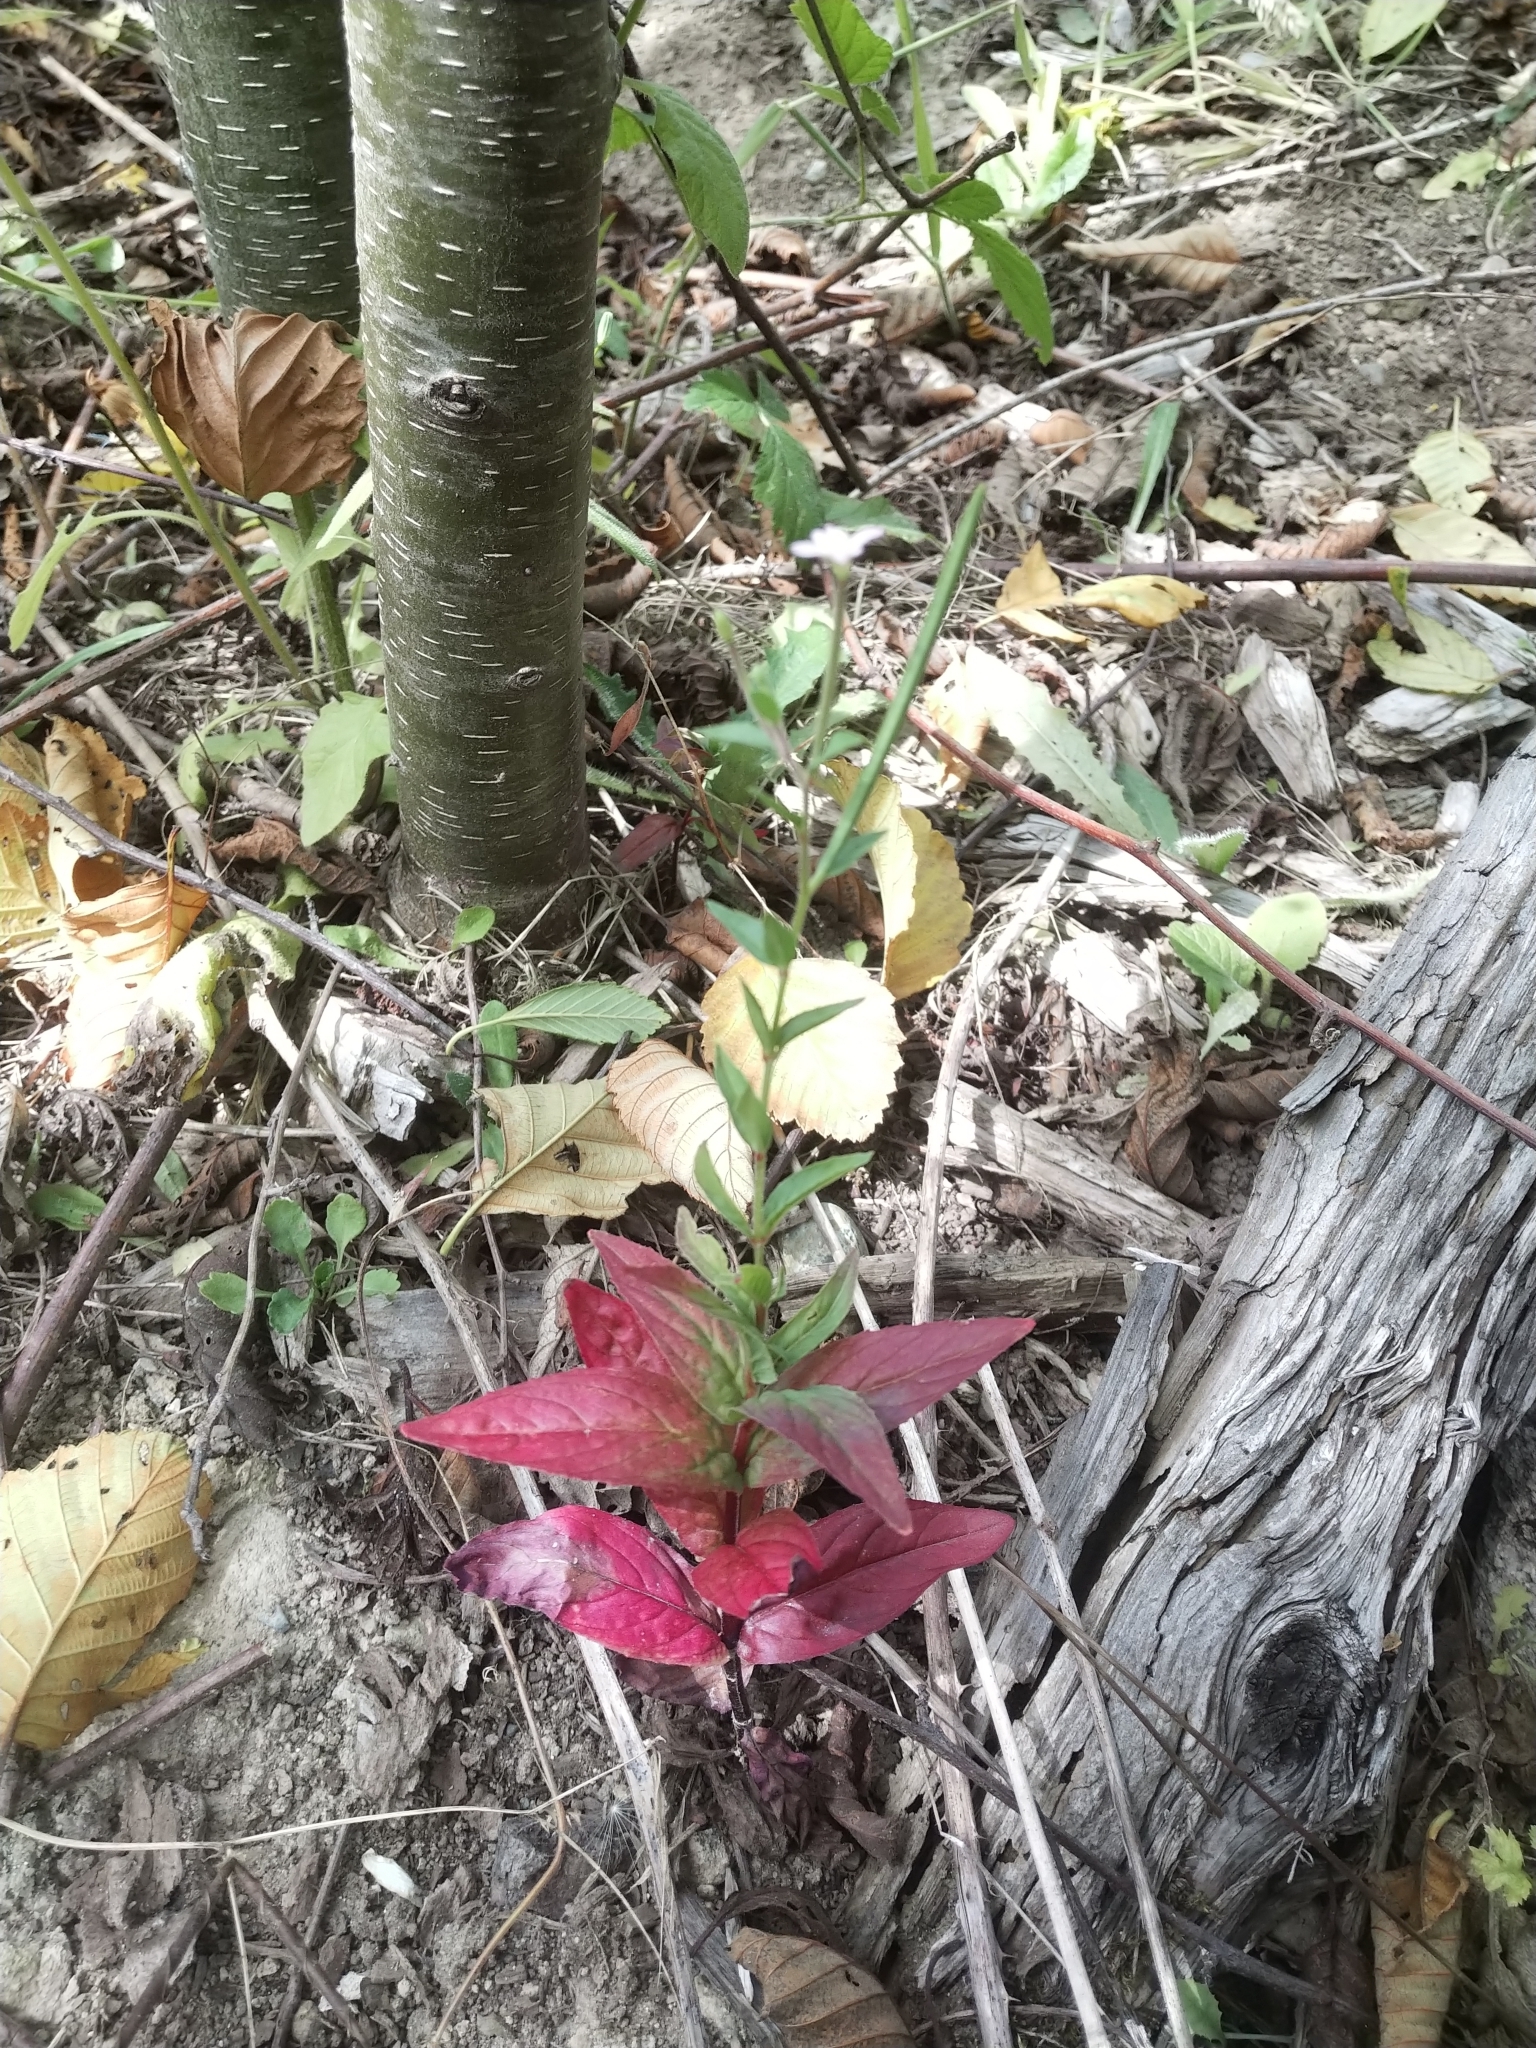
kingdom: Plantae
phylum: Tracheophyta
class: Magnoliopsida
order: Myrtales
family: Onagraceae
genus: Epilobium
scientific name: Epilobium ciliatum
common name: American willowherb
